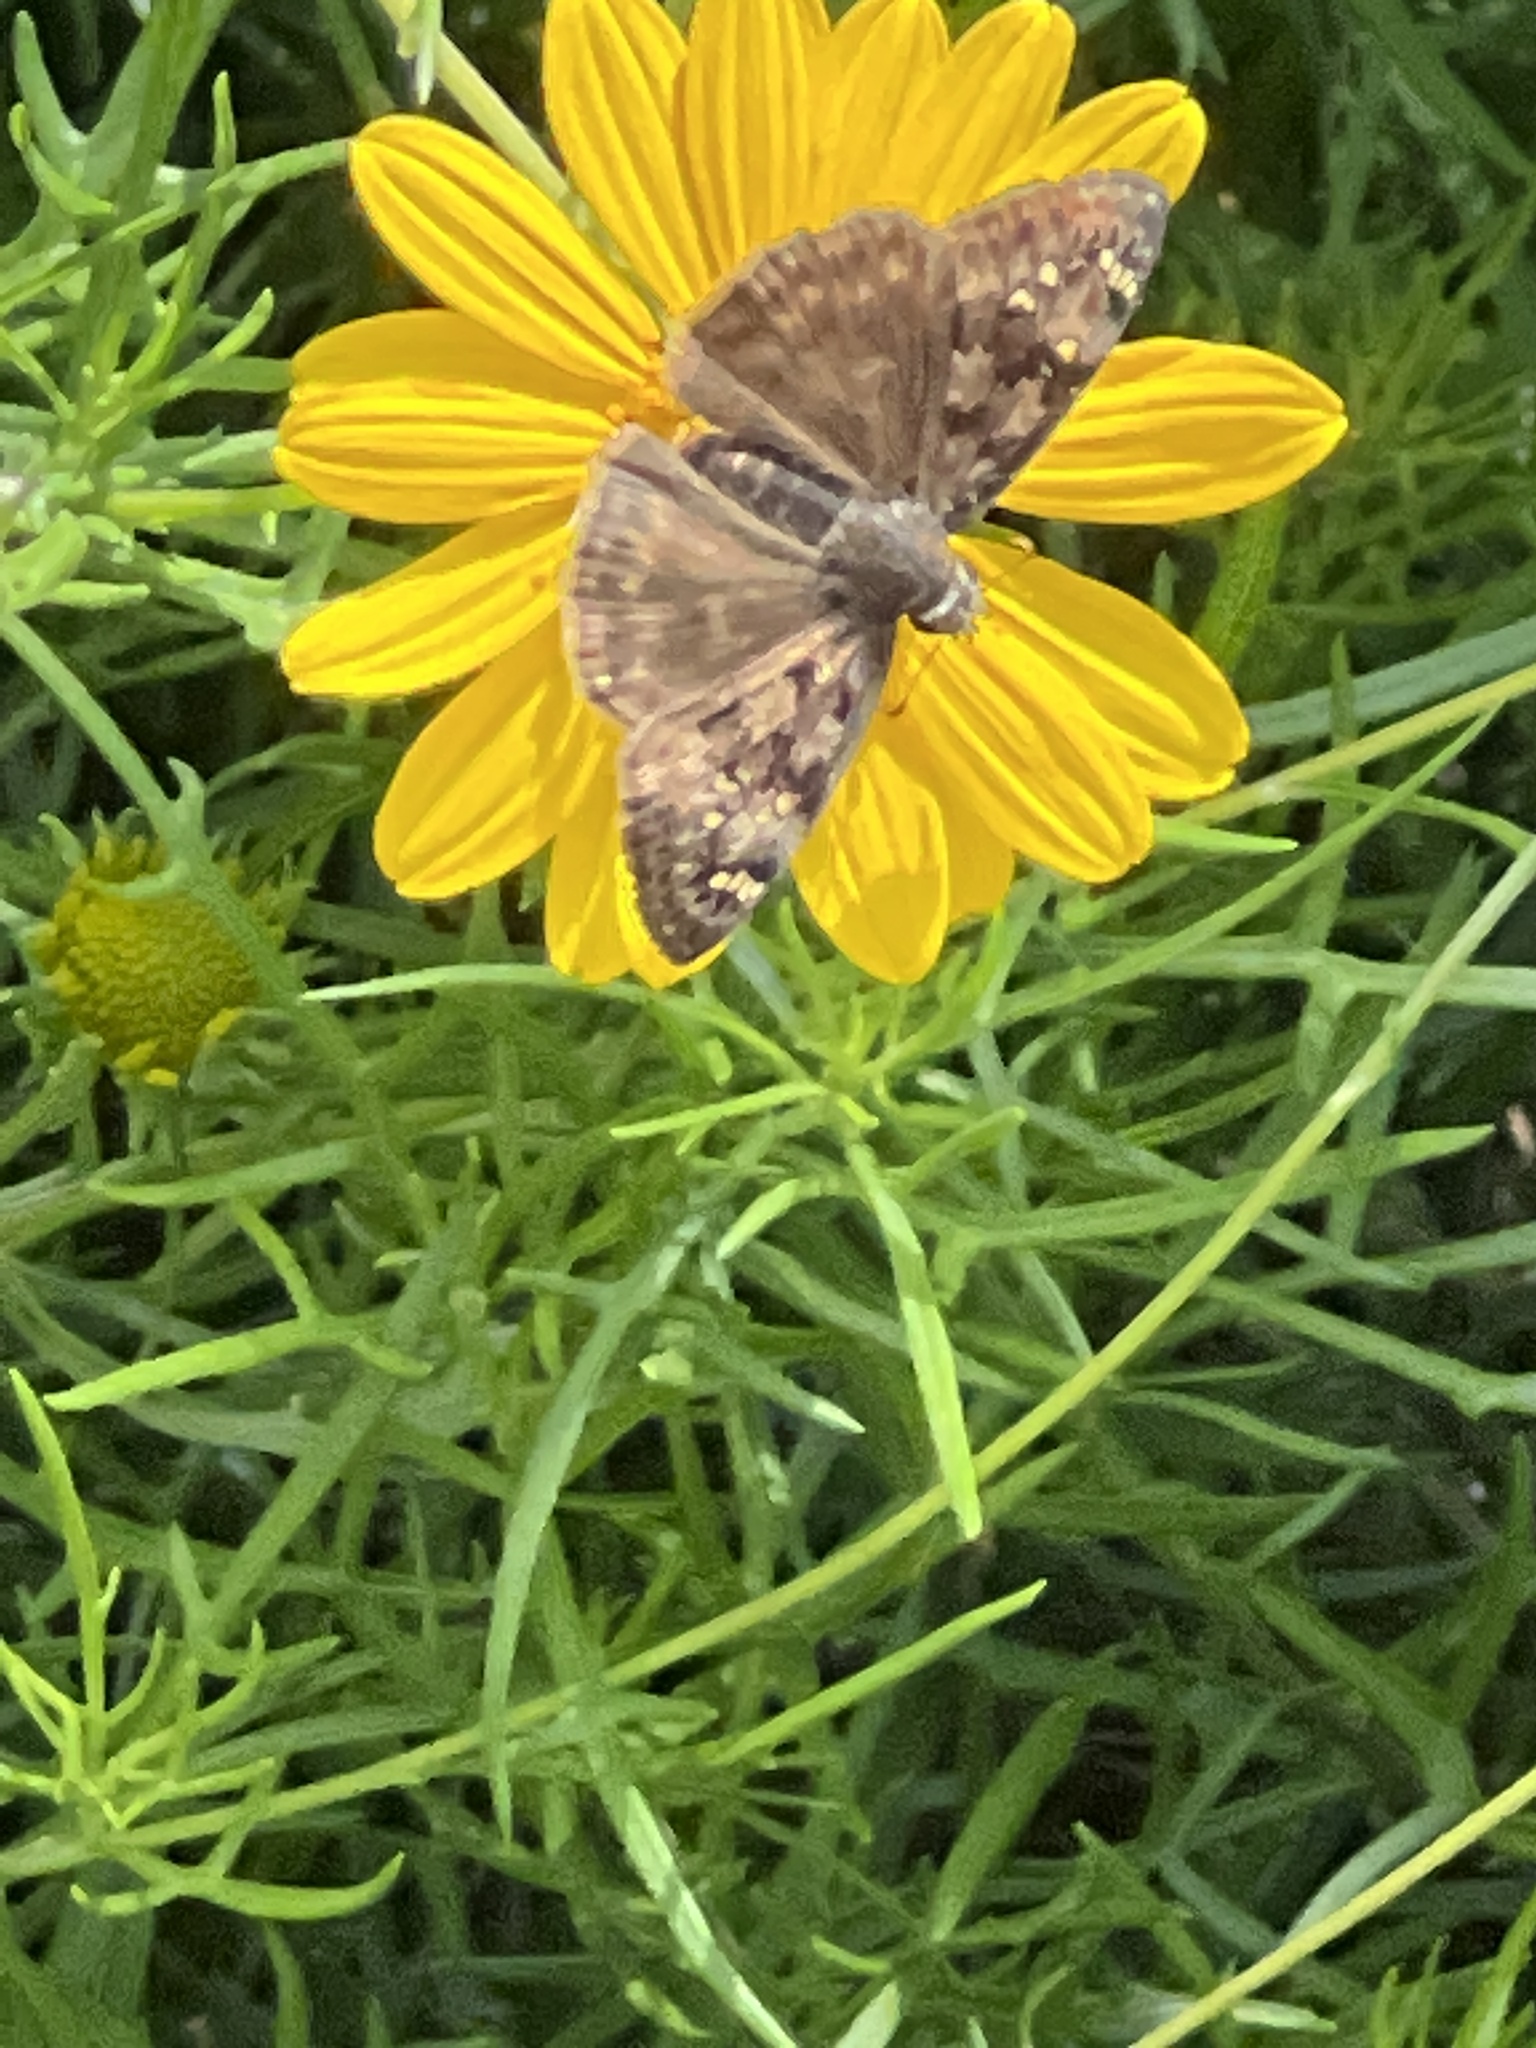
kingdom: Animalia
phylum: Arthropoda
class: Insecta
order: Lepidoptera
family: Hesperiidae
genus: Erynnis
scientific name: Erynnis horatius
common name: Horace's duskywing
